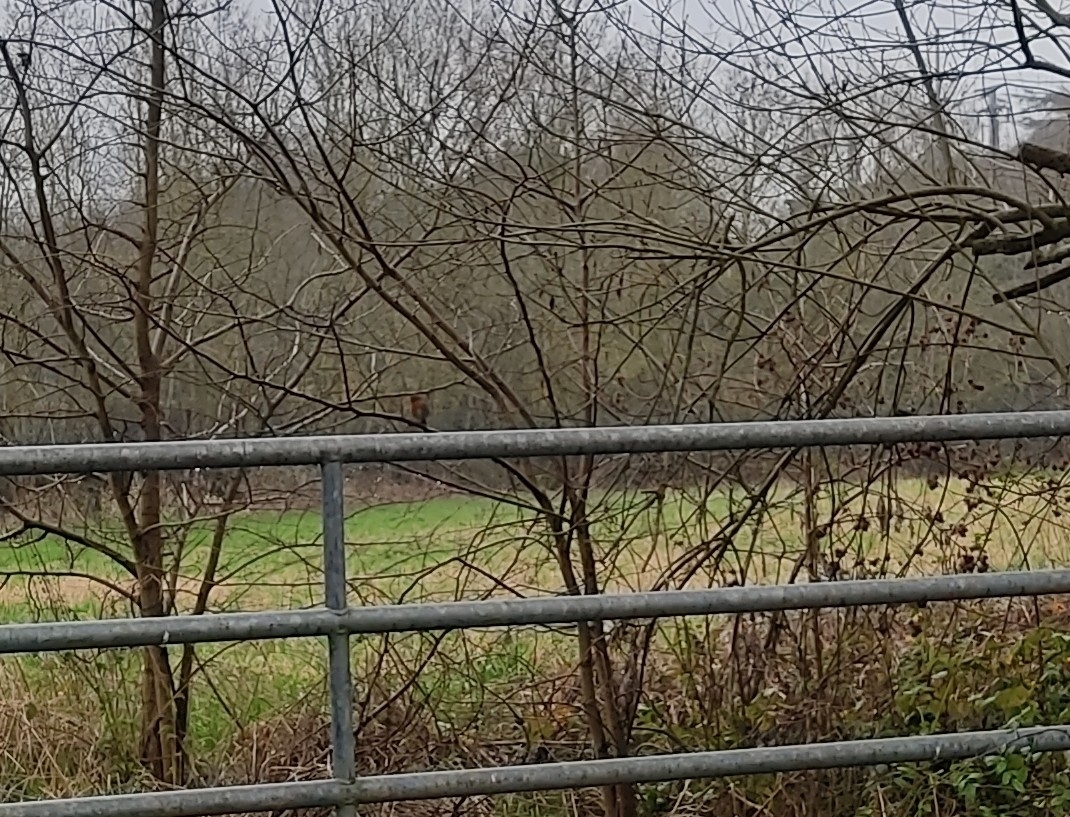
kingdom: Animalia
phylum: Chordata
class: Aves
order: Passeriformes
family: Muscicapidae
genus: Erithacus
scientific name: Erithacus rubecula
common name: European robin
